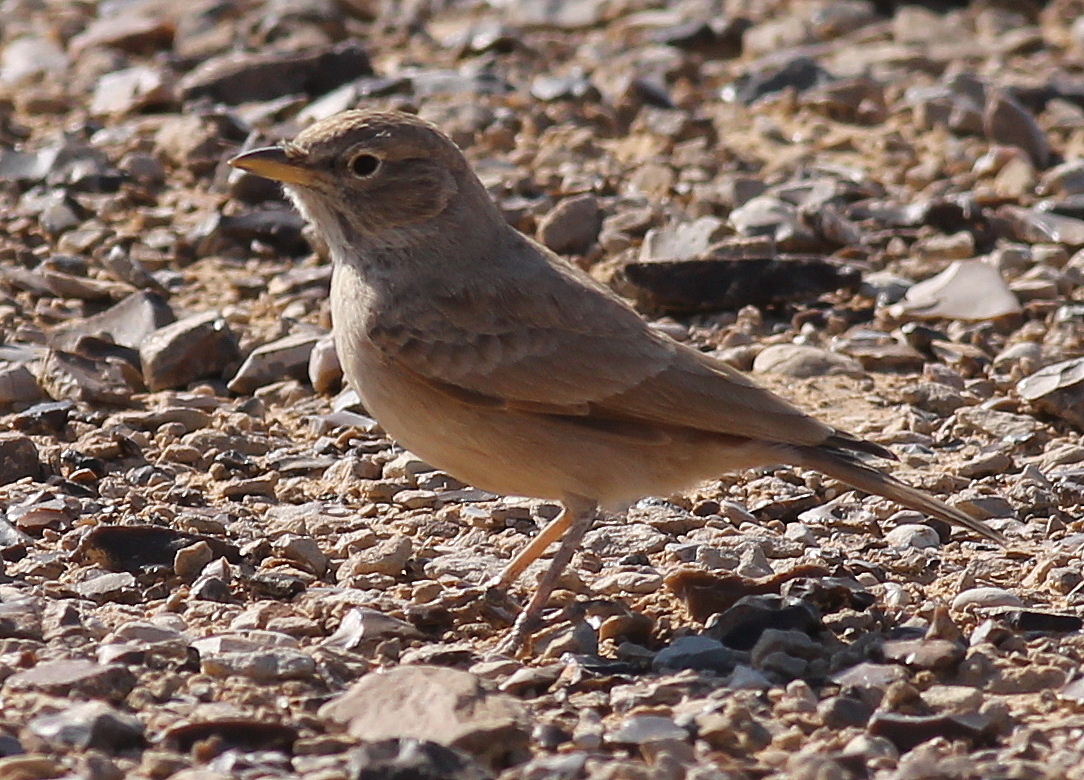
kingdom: Animalia
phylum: Chordata
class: Aves
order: Passeriformes
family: Alaudidae
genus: Ammomanes
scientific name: Ammomanes deserti
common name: Desert lark
